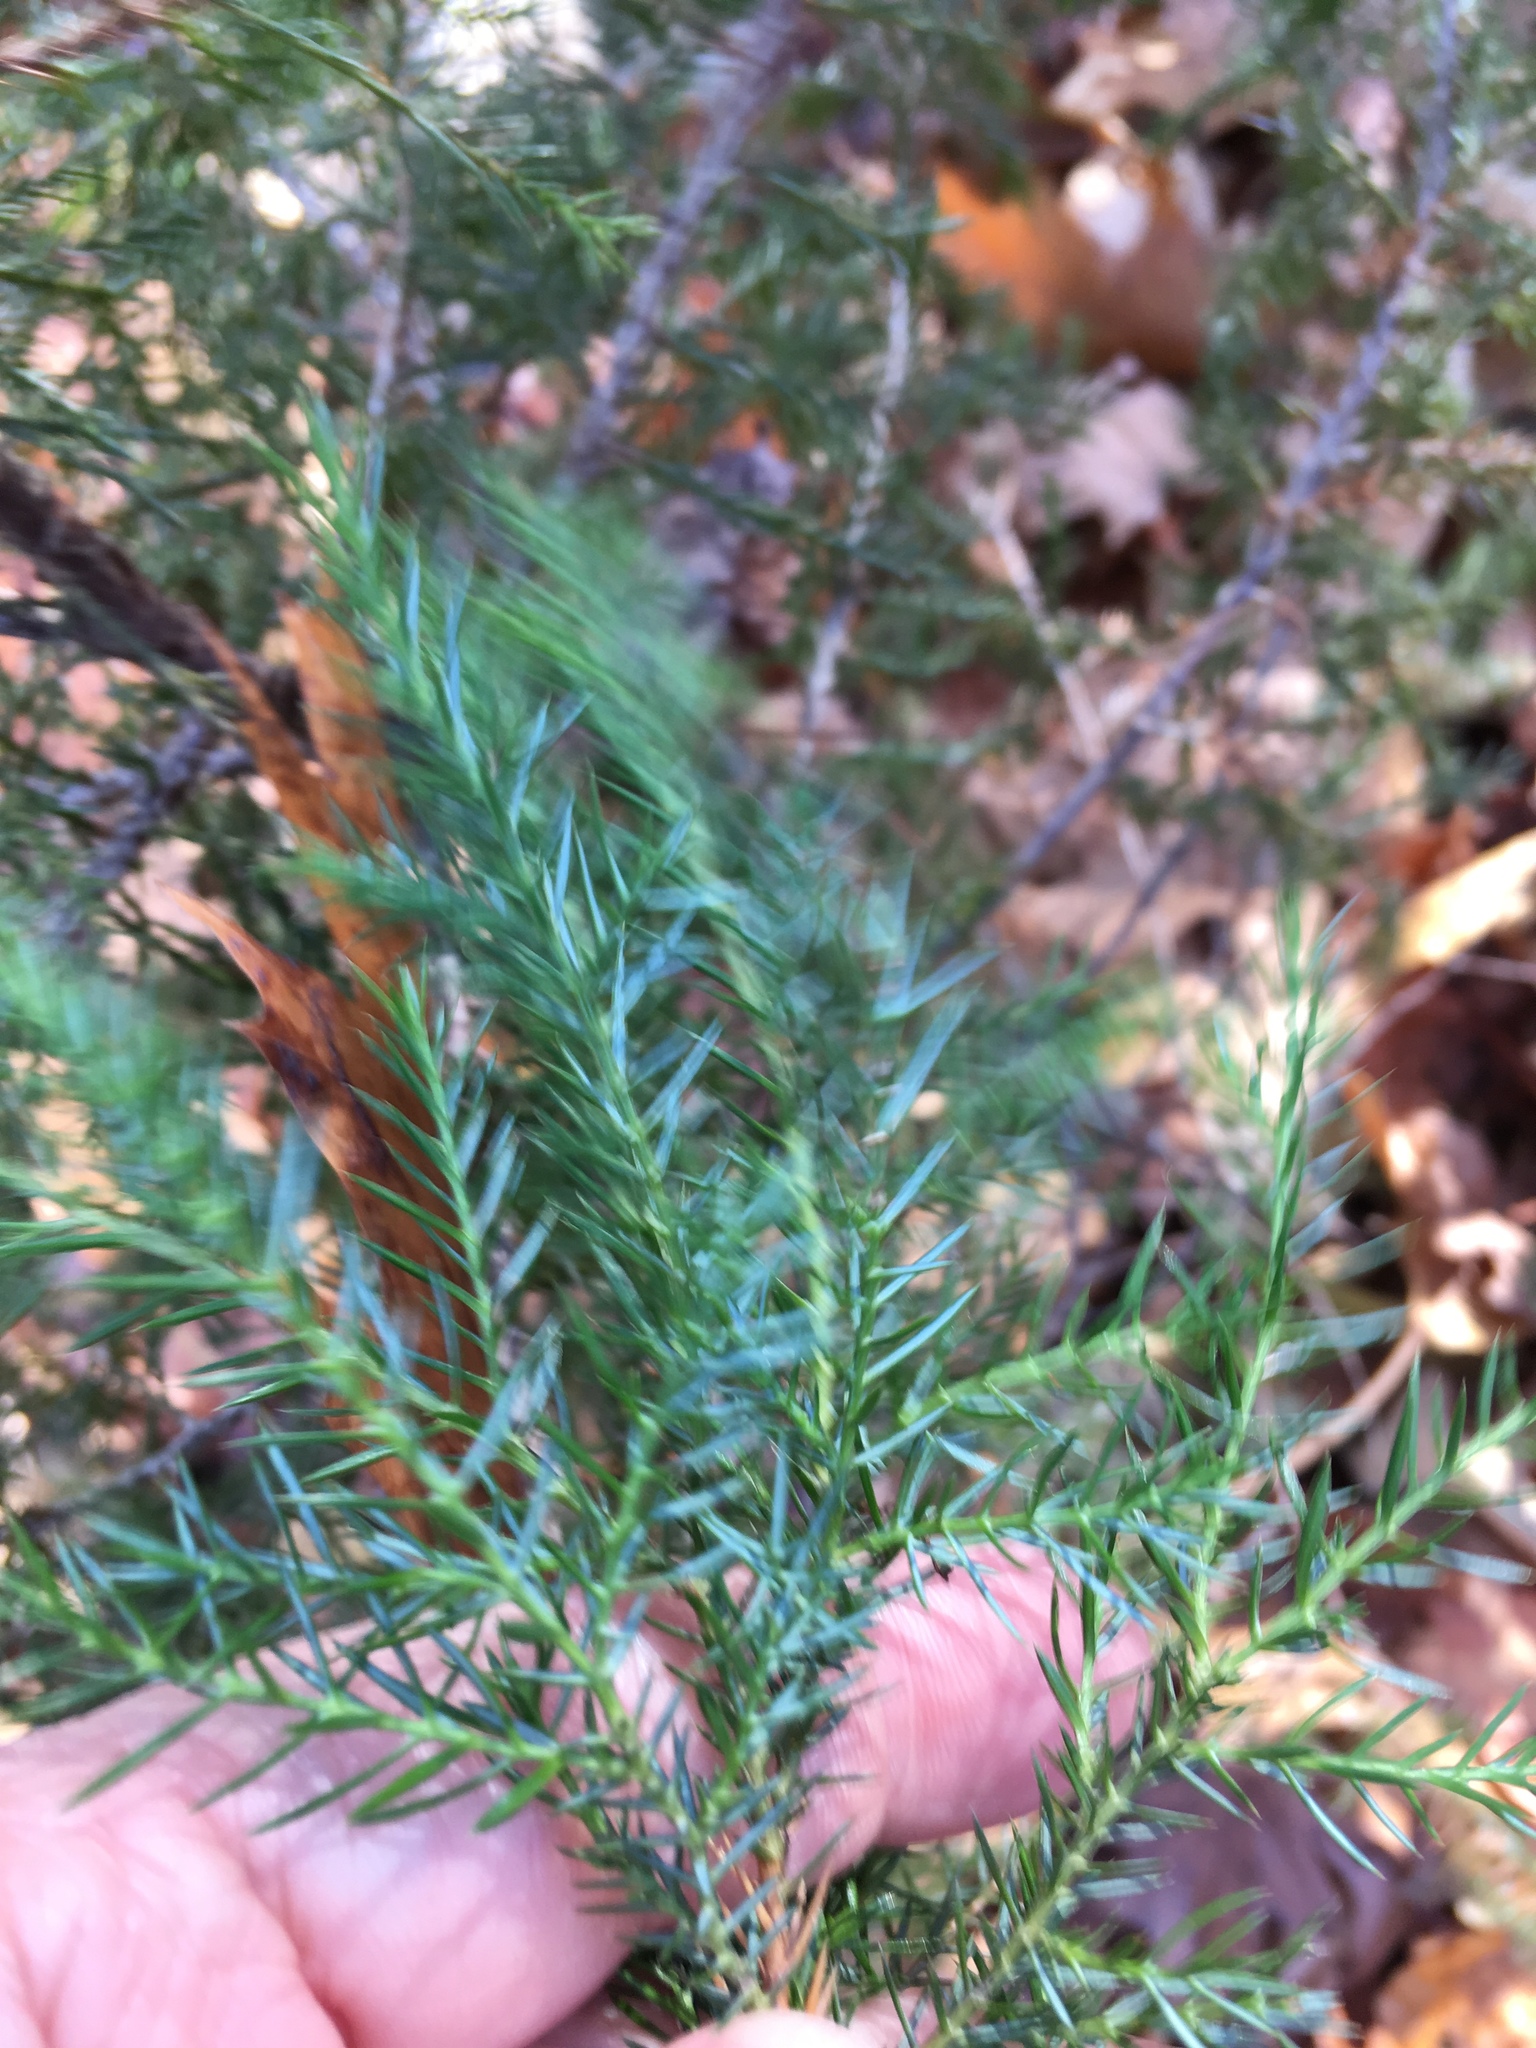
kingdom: Plantae
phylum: Tracheophyta
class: Pinopsida
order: Pinales
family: Cupressaceae
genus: Juniperus
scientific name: Juniperus virginiana
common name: Red juniper
